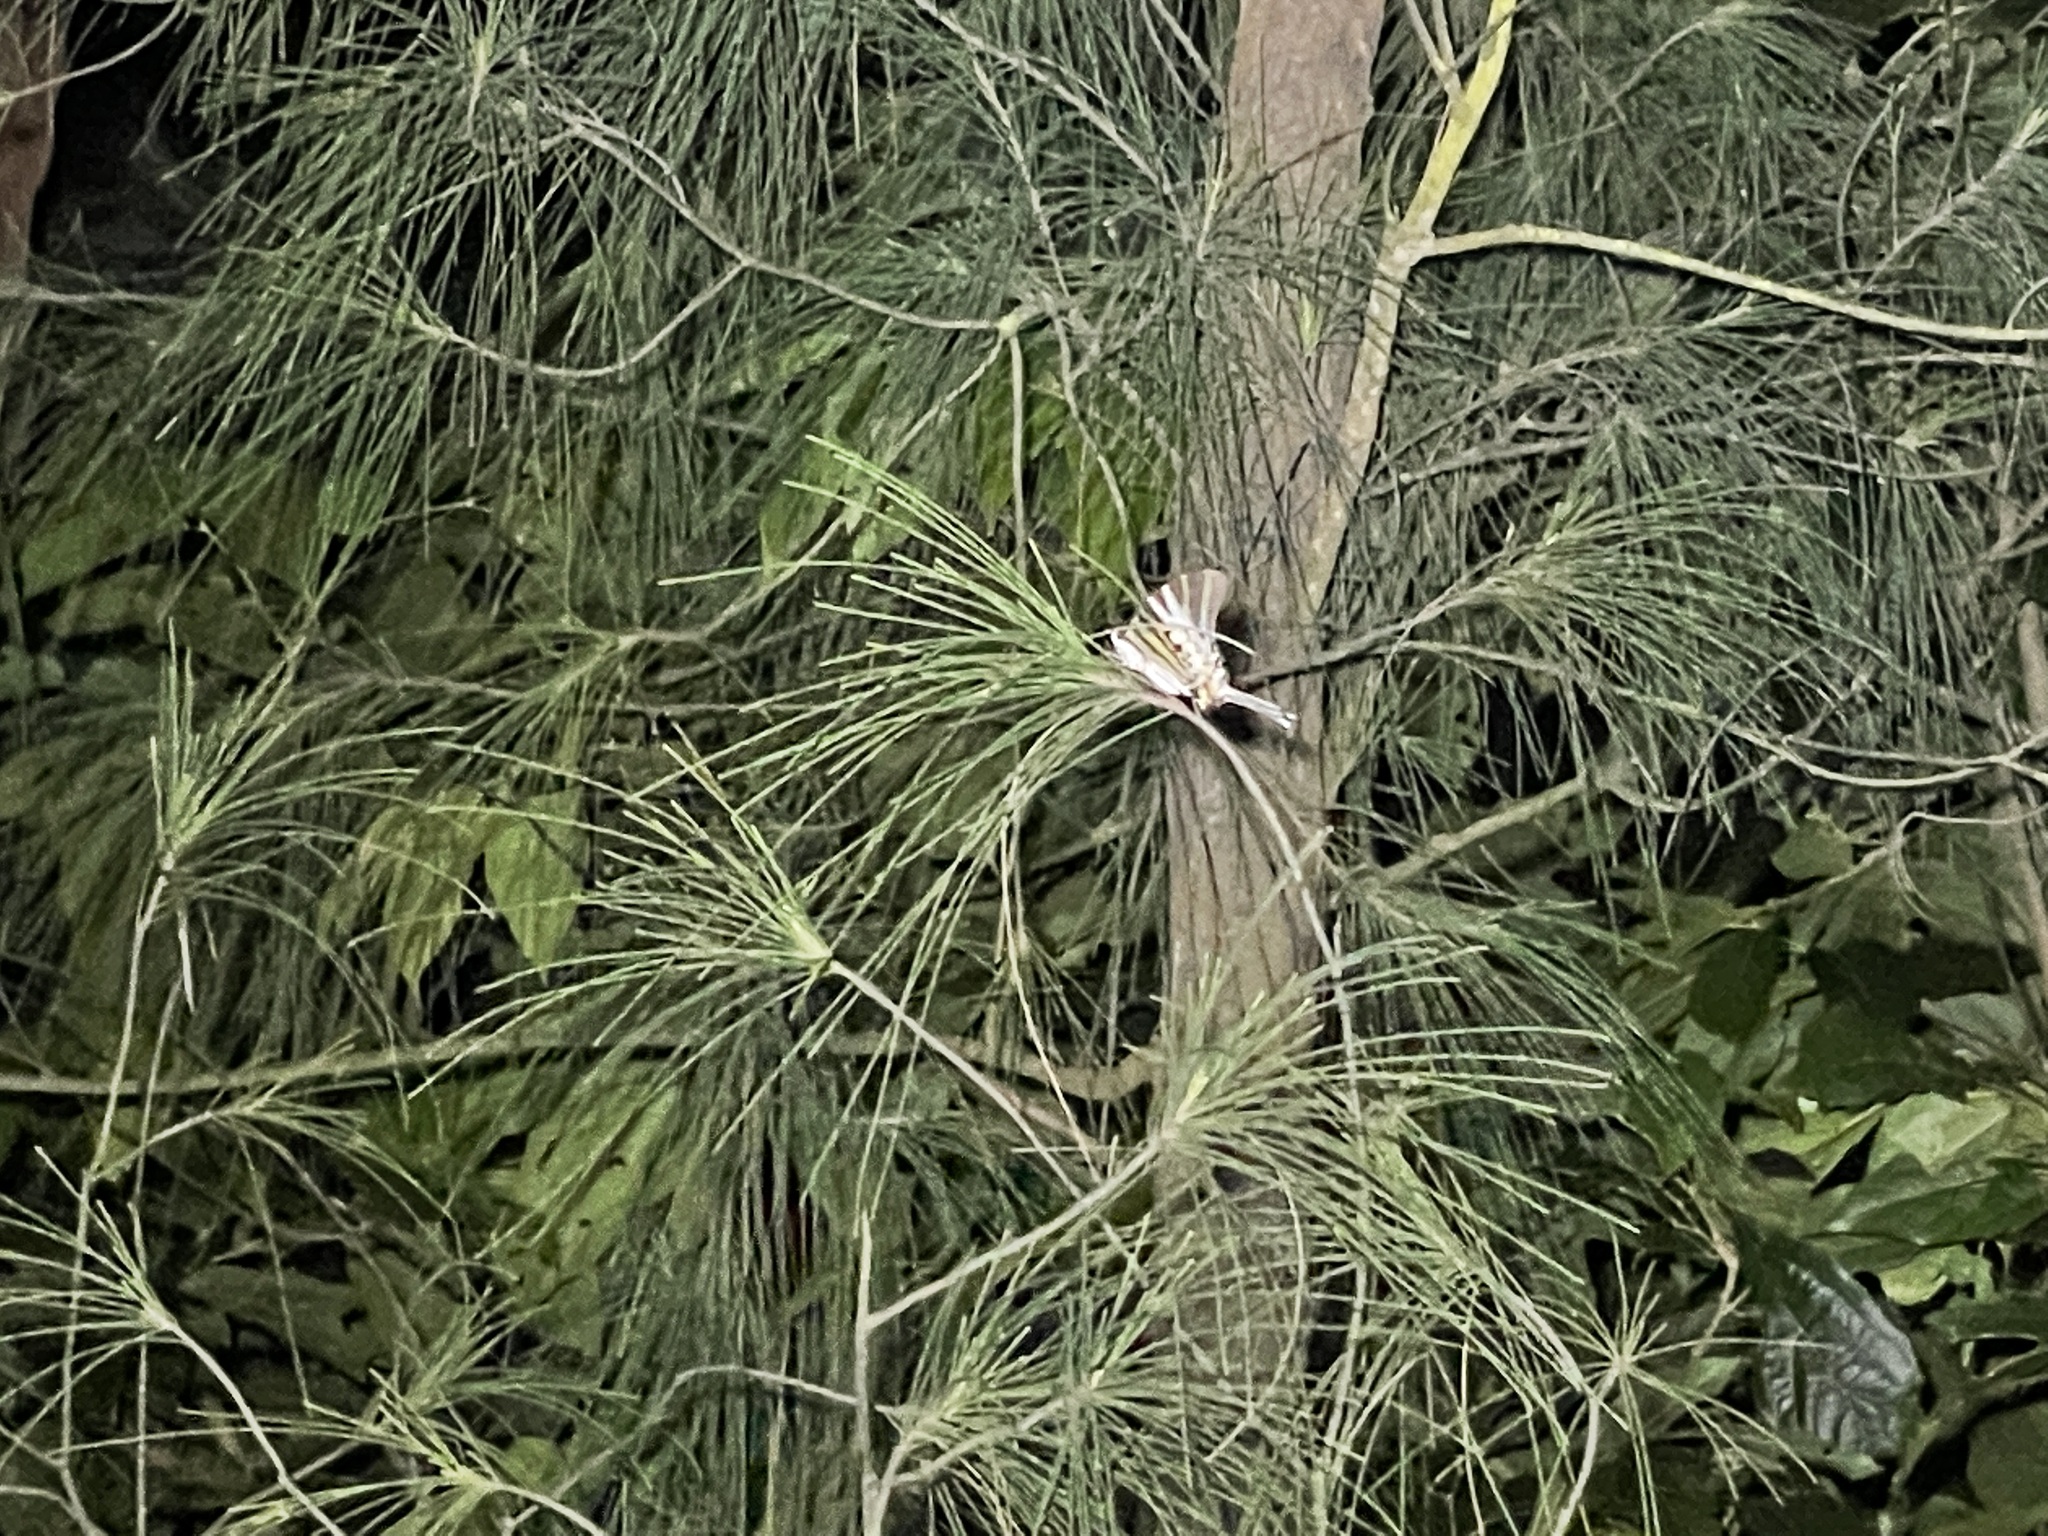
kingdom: Animalia
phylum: Arthropoda
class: Insecta
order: Lepidoptera
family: Papilionidae
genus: Graphium
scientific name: Graphium antiphates
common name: Fivebar swordtail
